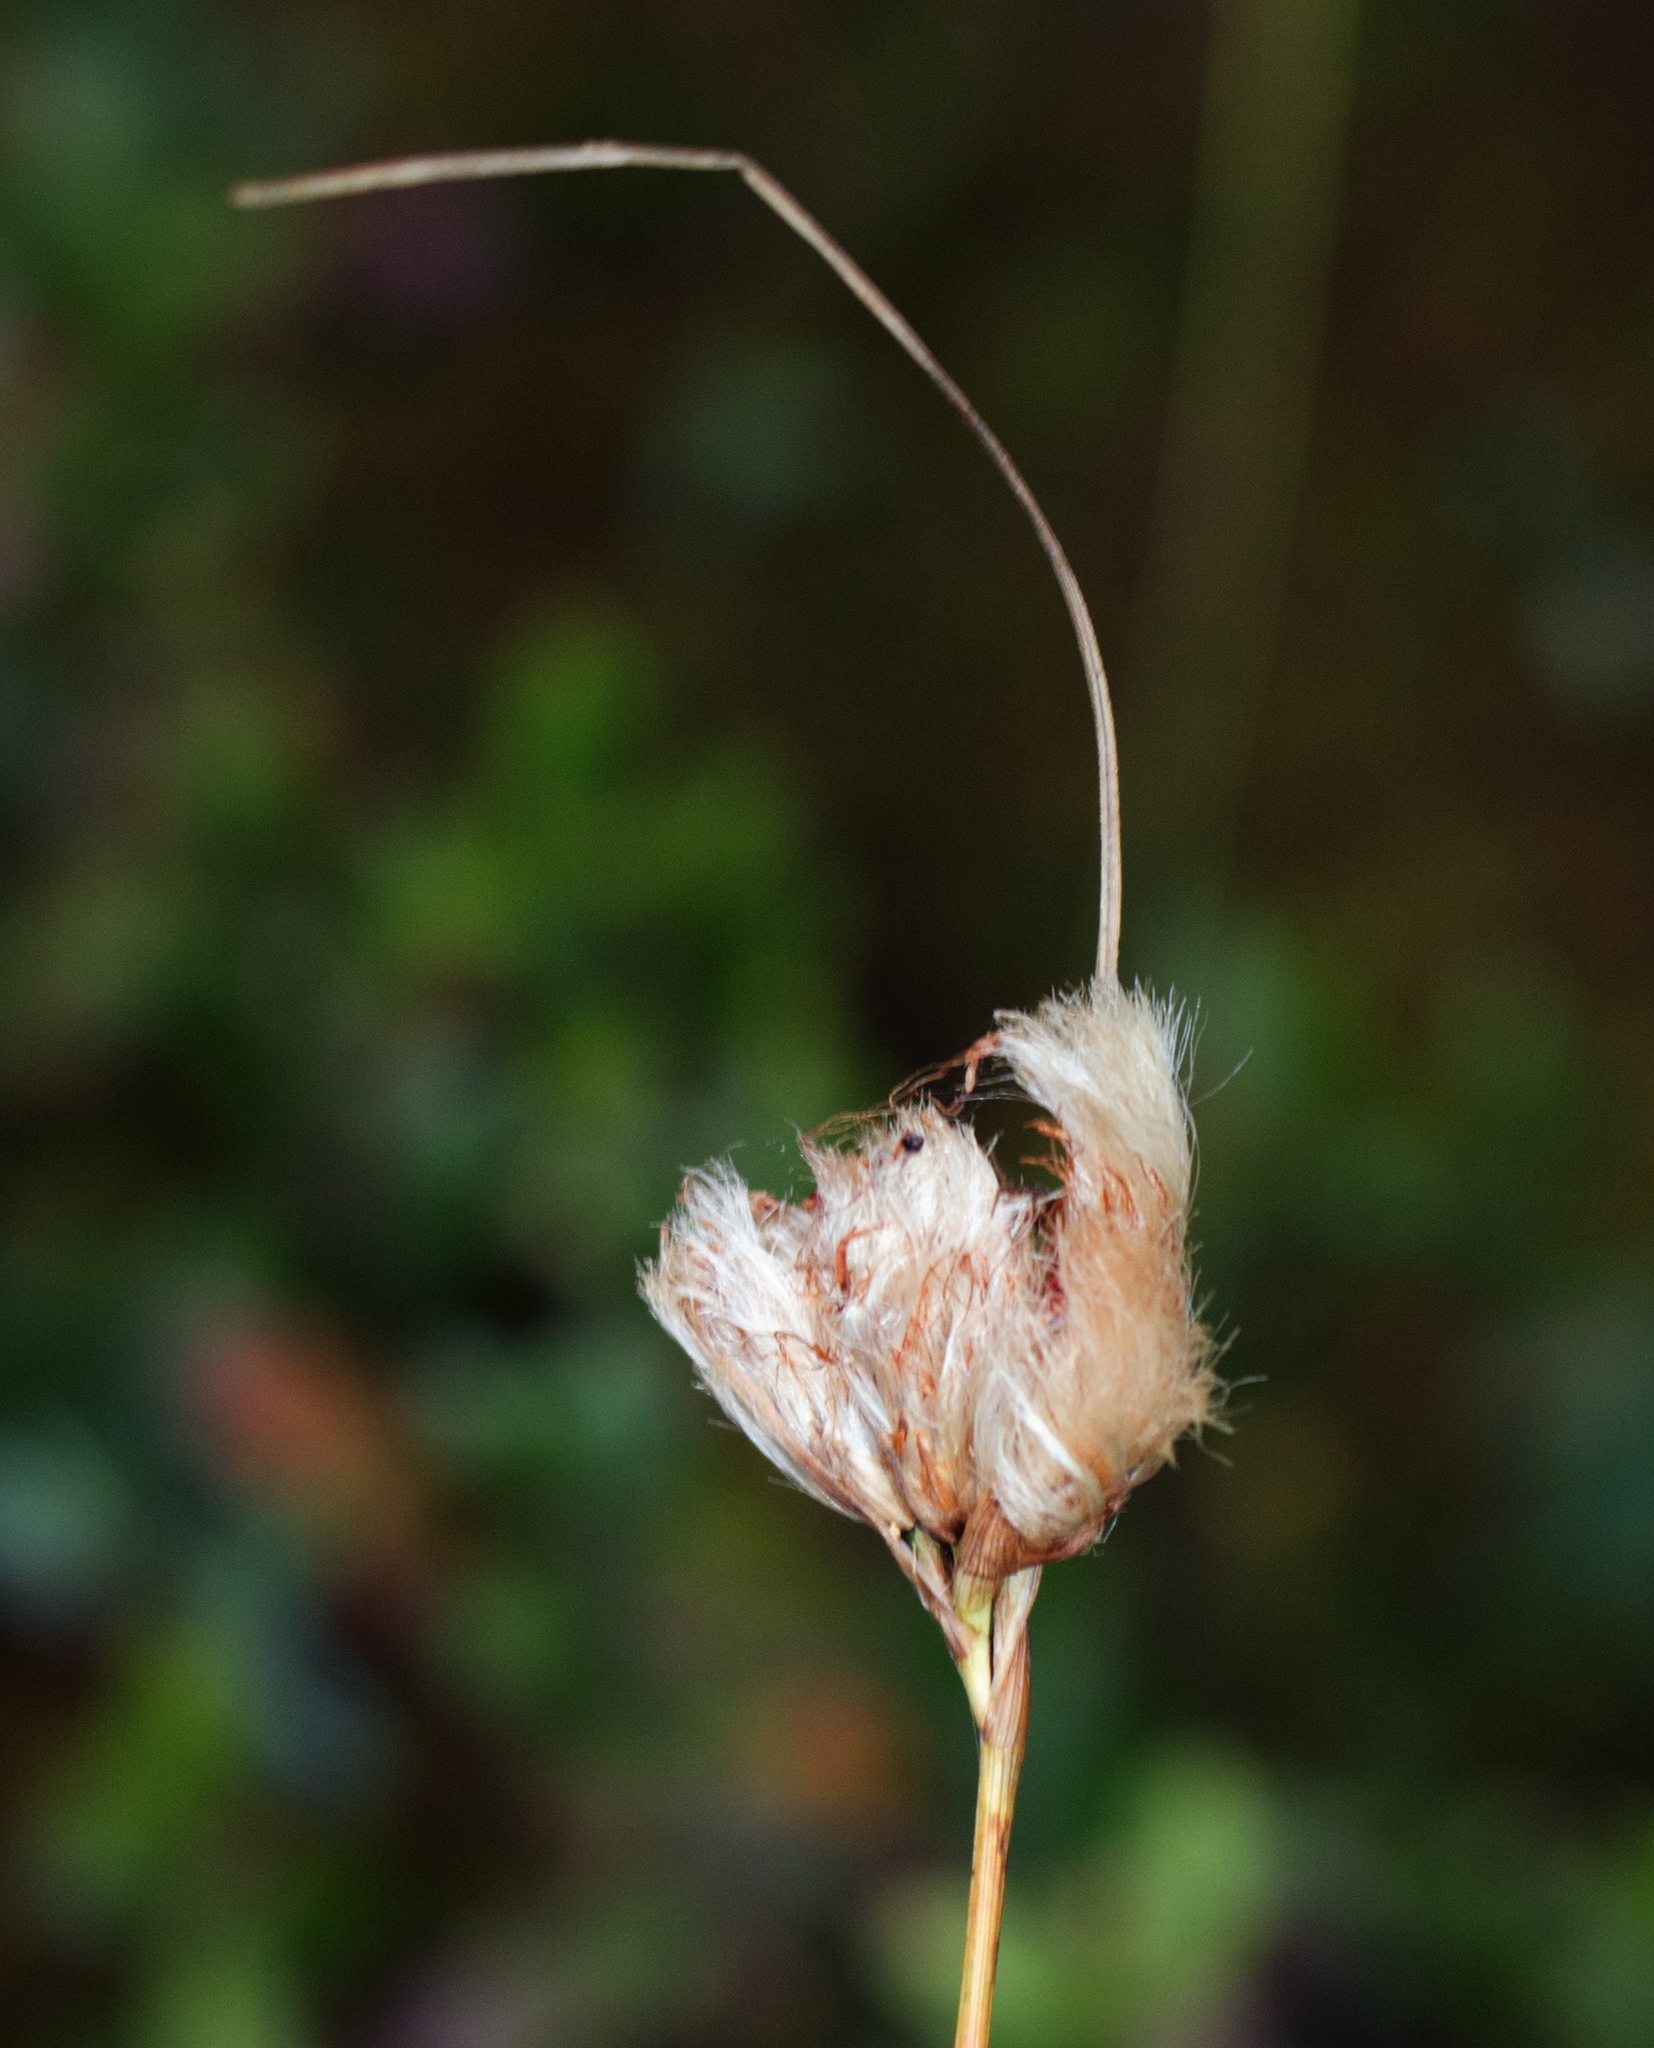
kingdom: Plantae
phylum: Tracheophyta
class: Liliopsida
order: Poales
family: Cyperaceae
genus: Eriophorum
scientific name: Eriophorum virginicum
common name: Tawny cottongrass
